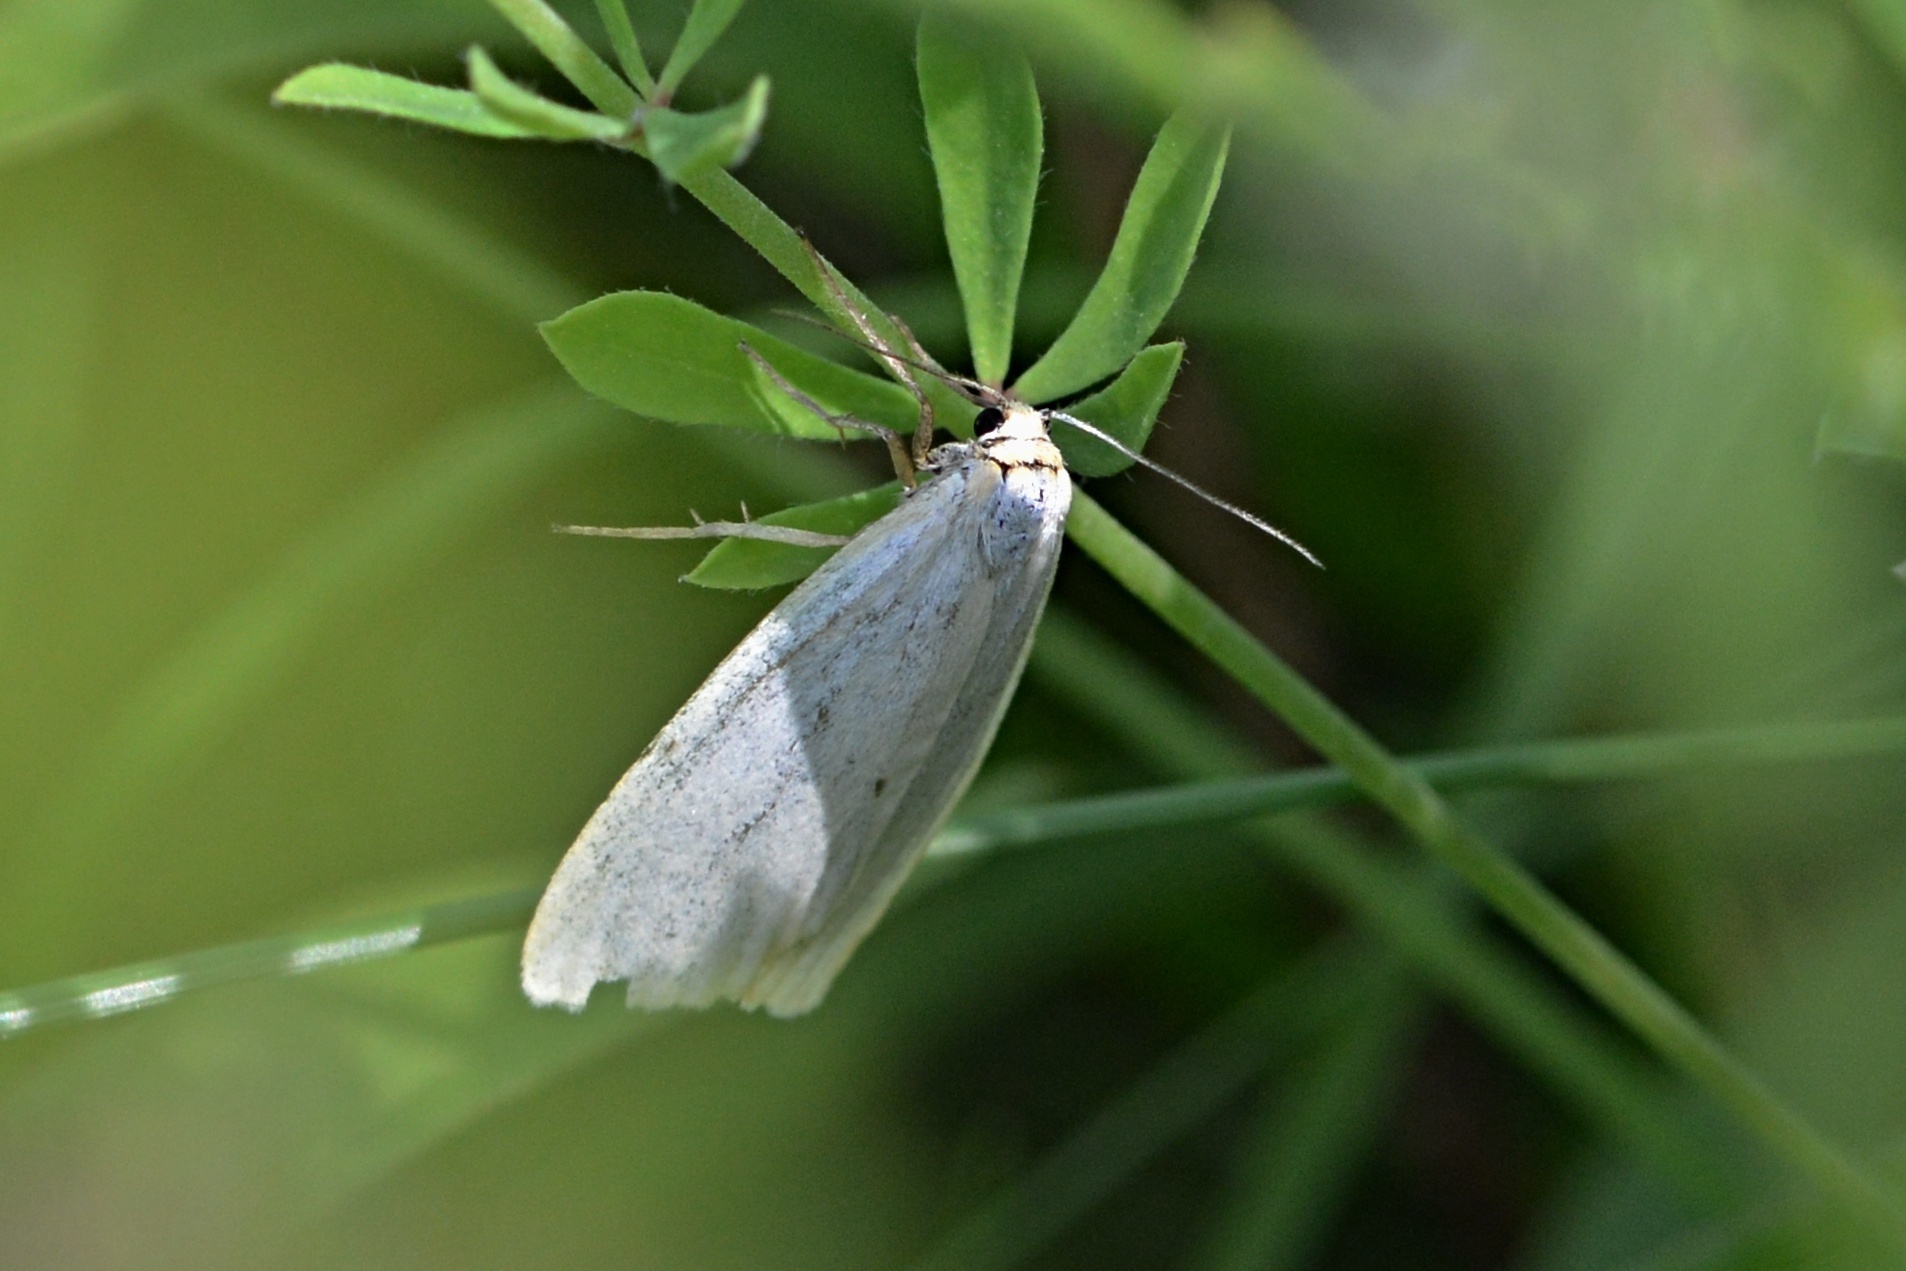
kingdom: Animalia
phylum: Arthropoda
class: Insecta
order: Lepidoptera
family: Erebidae
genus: Cybosia
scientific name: Cybosia mesomella
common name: Four-dotted footman
